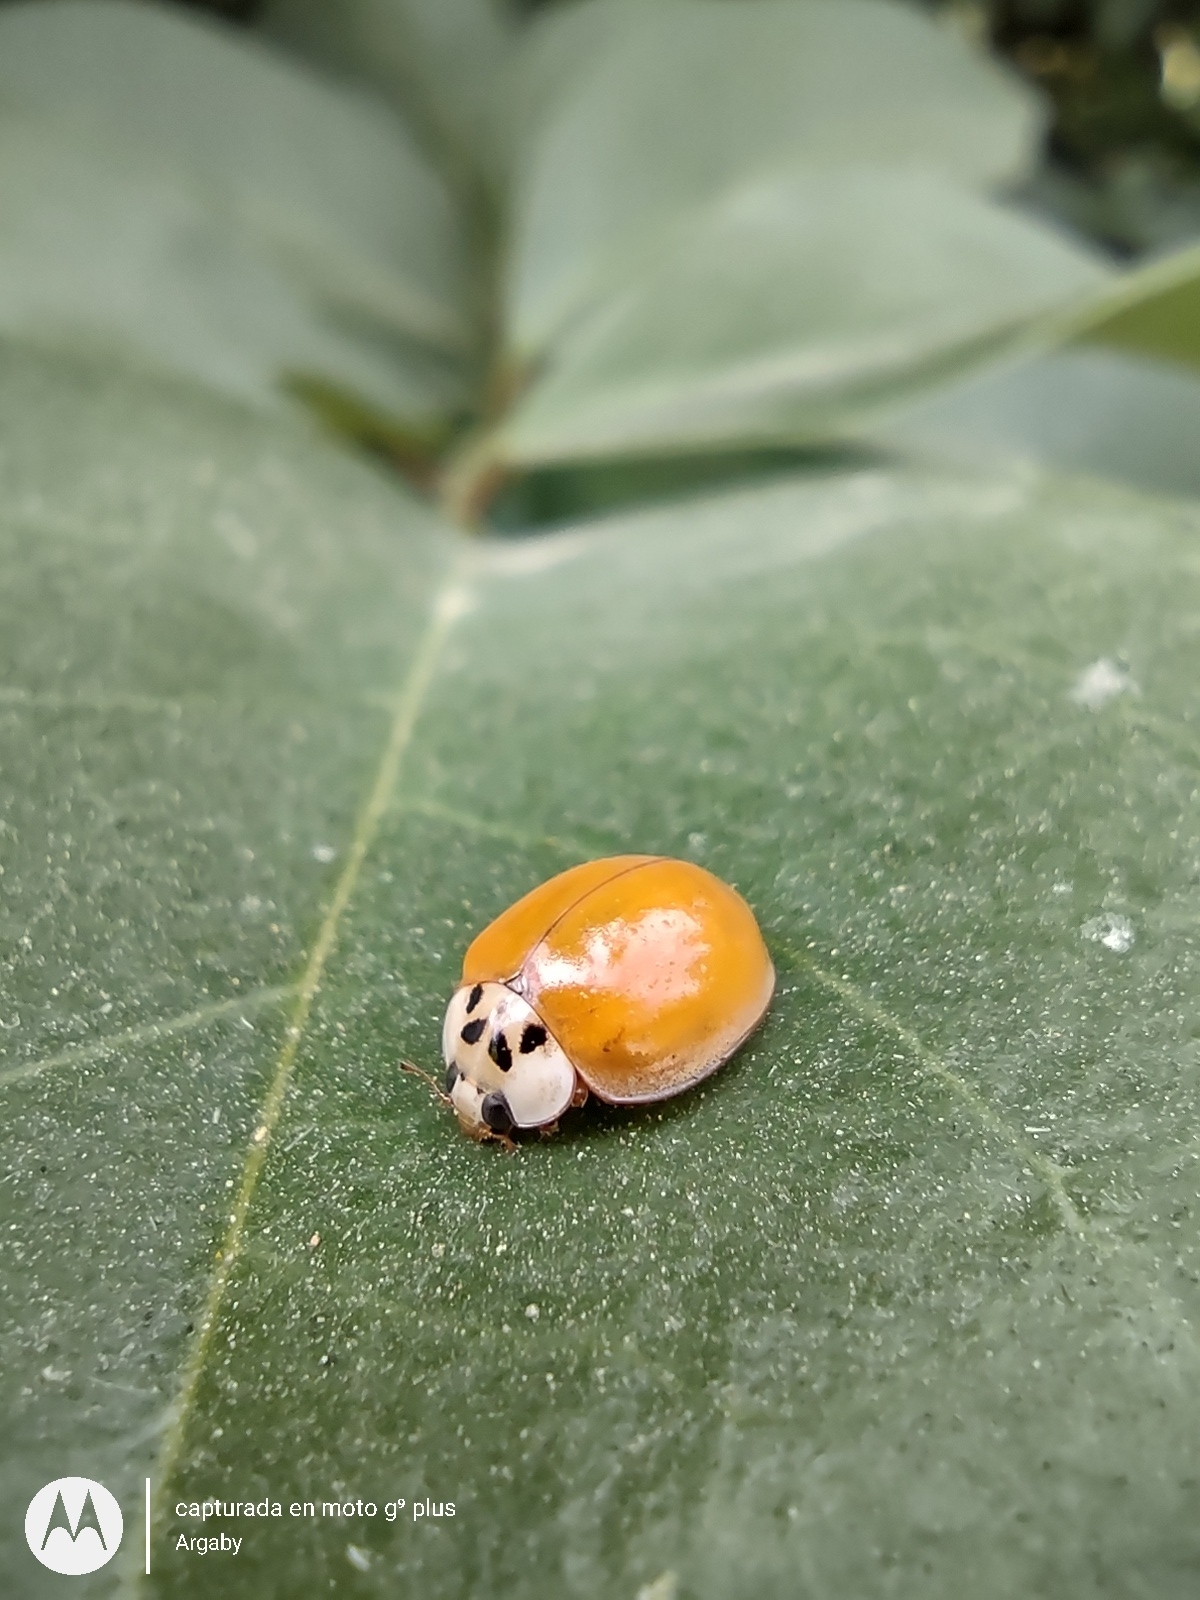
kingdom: Animalia
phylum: Arthropoda
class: Insecta
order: Coleoptera
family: Coccinellidae
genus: Harmonia
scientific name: Harmonia axyridis
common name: Harlequin ladybird
